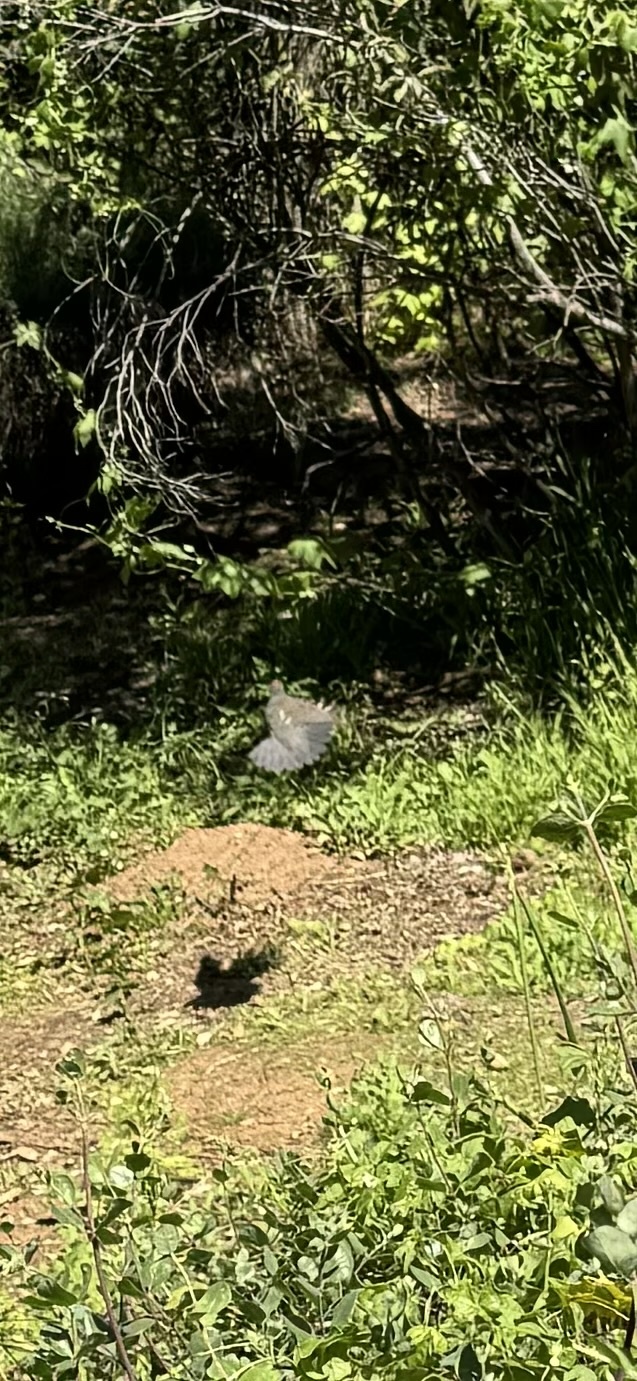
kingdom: Animalia
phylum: Chordata
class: Aves
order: Galliformes
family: Odontophoridae
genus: Callipepla
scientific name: Callipepla californica
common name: California quail
